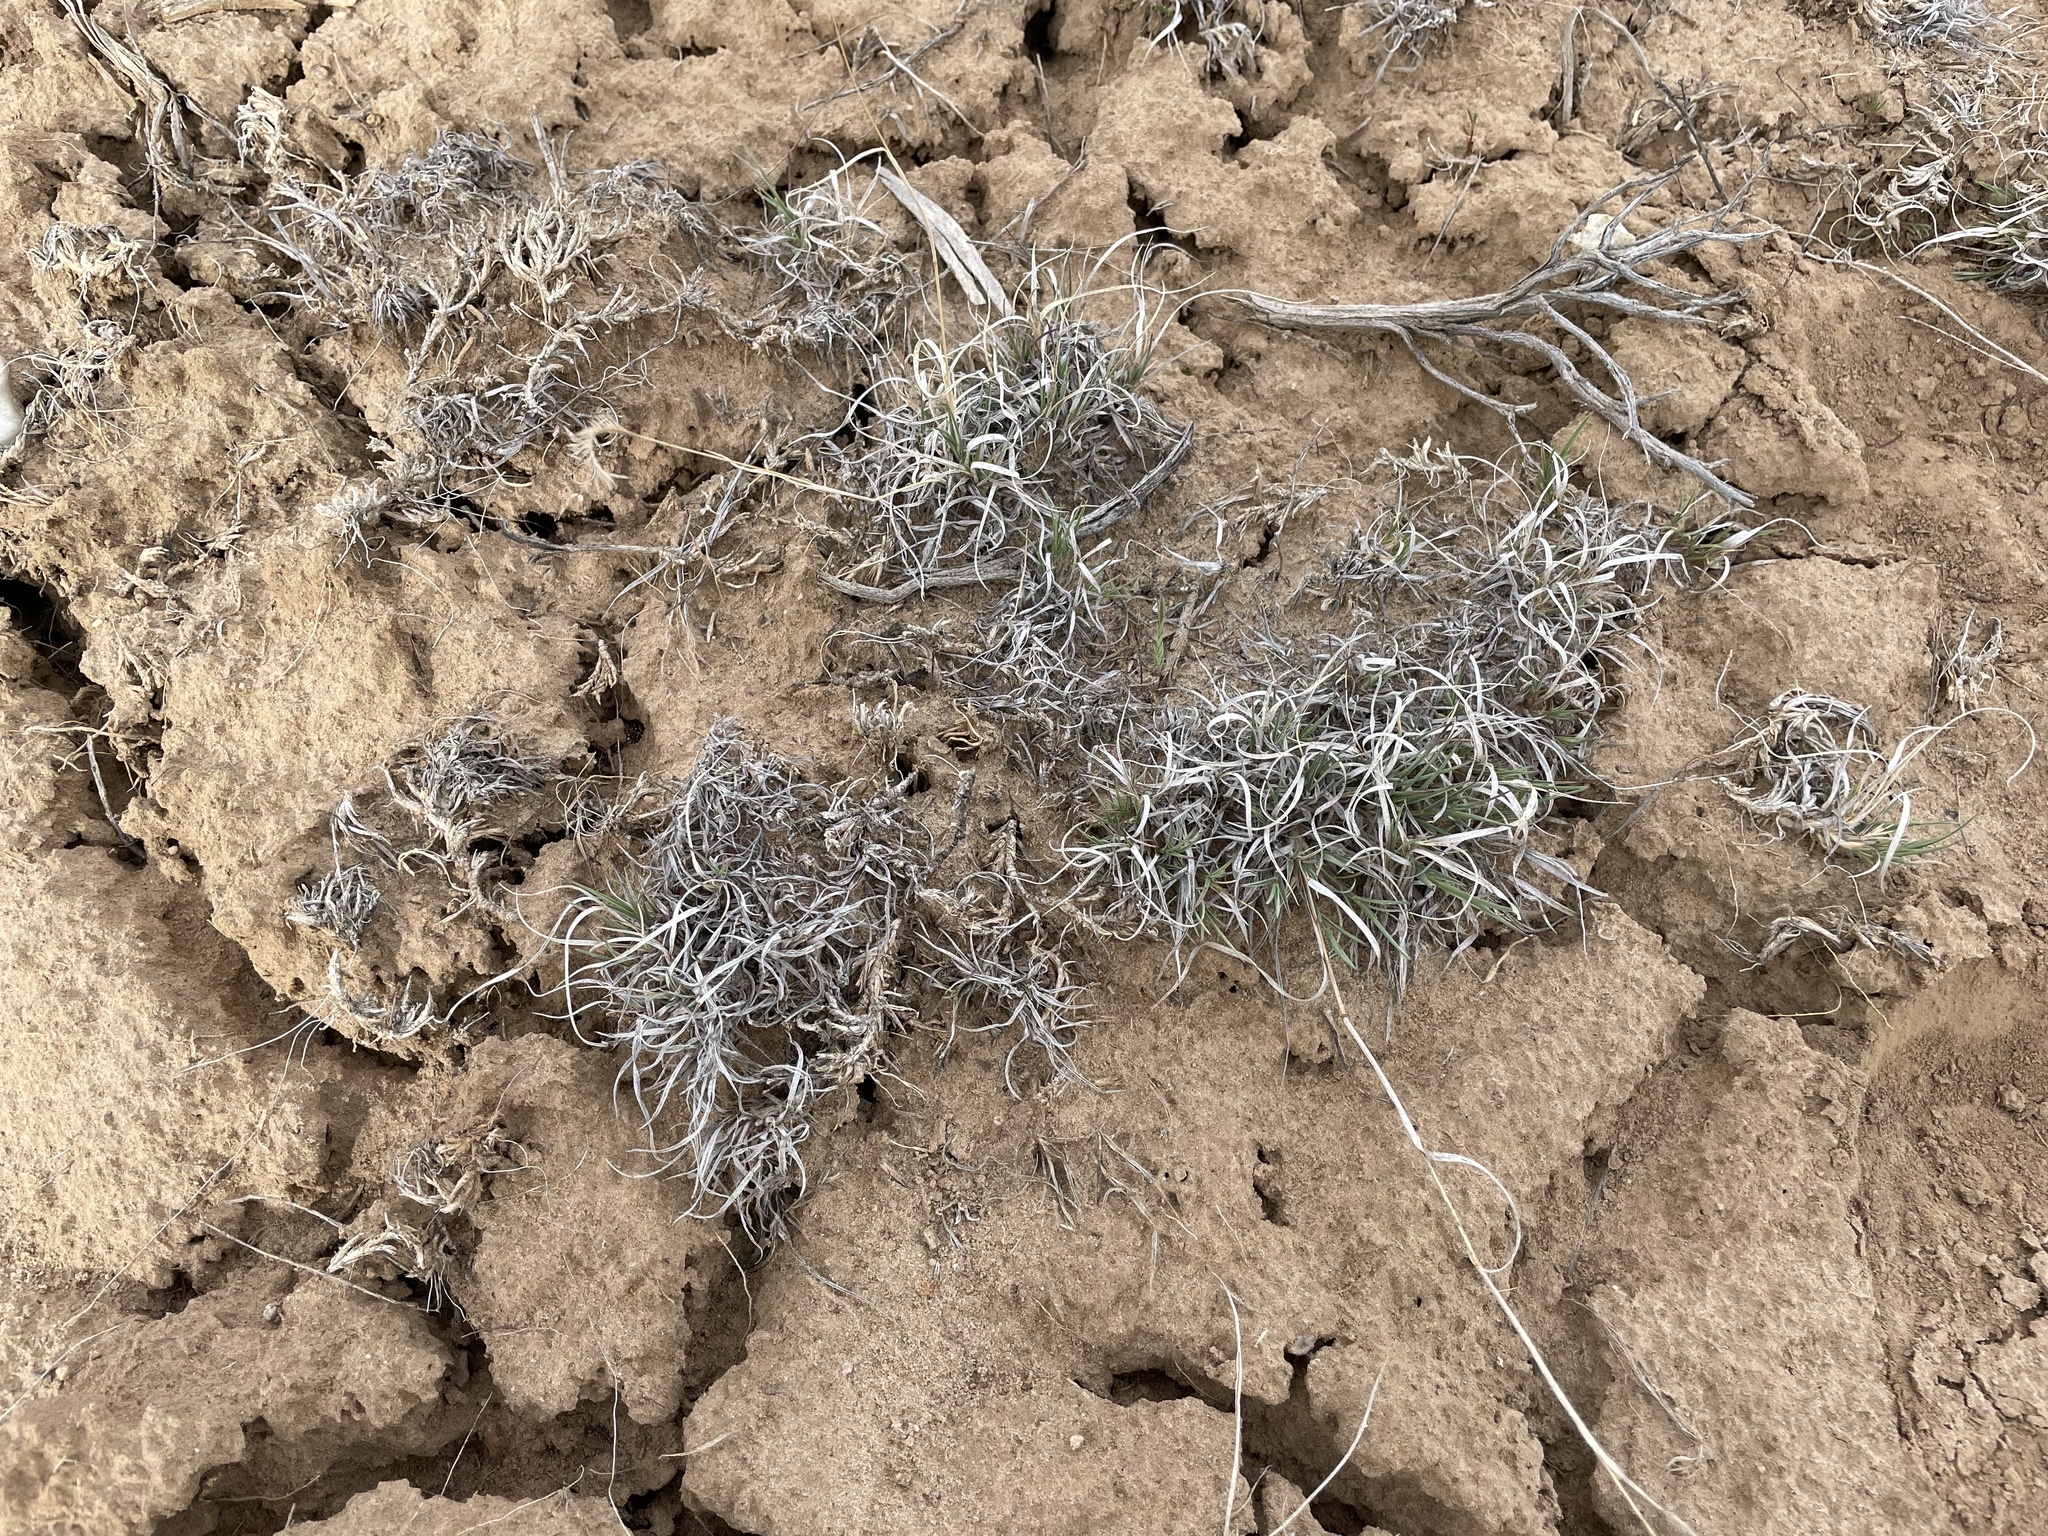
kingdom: Plantae
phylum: Tracheophyta
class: Liliopsida
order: Poales
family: Poaceae
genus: Bouteloua
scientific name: Bouteloua gracilis
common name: Blue grama
